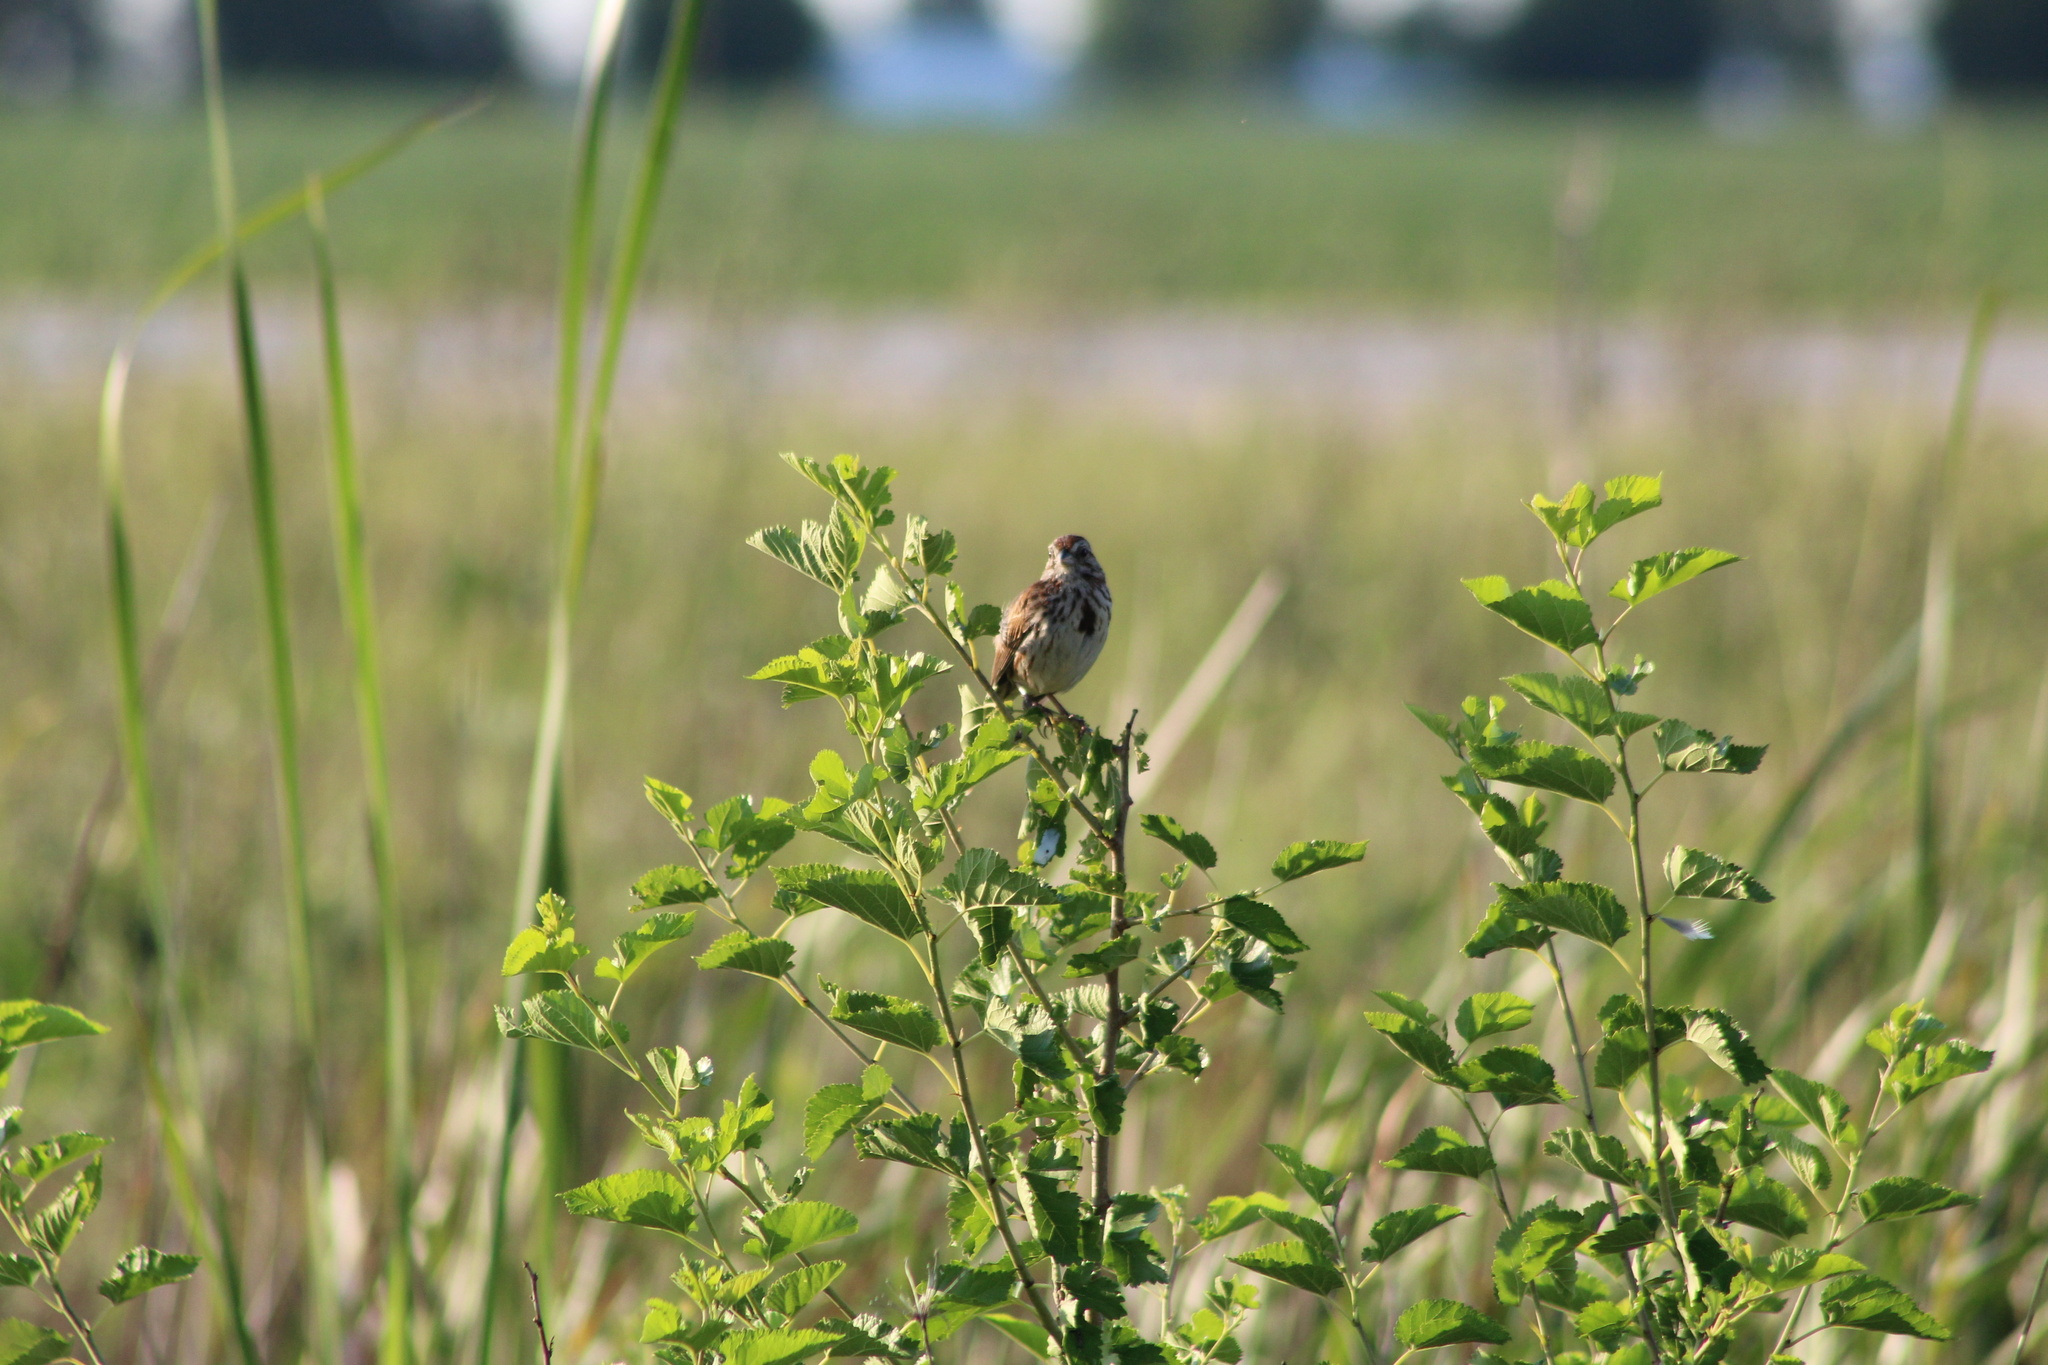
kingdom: Animalia
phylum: Chordata
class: Aves
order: Passeriformes
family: Passerellidae
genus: Melospiza
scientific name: Melospiza melodia
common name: Song sparrow
